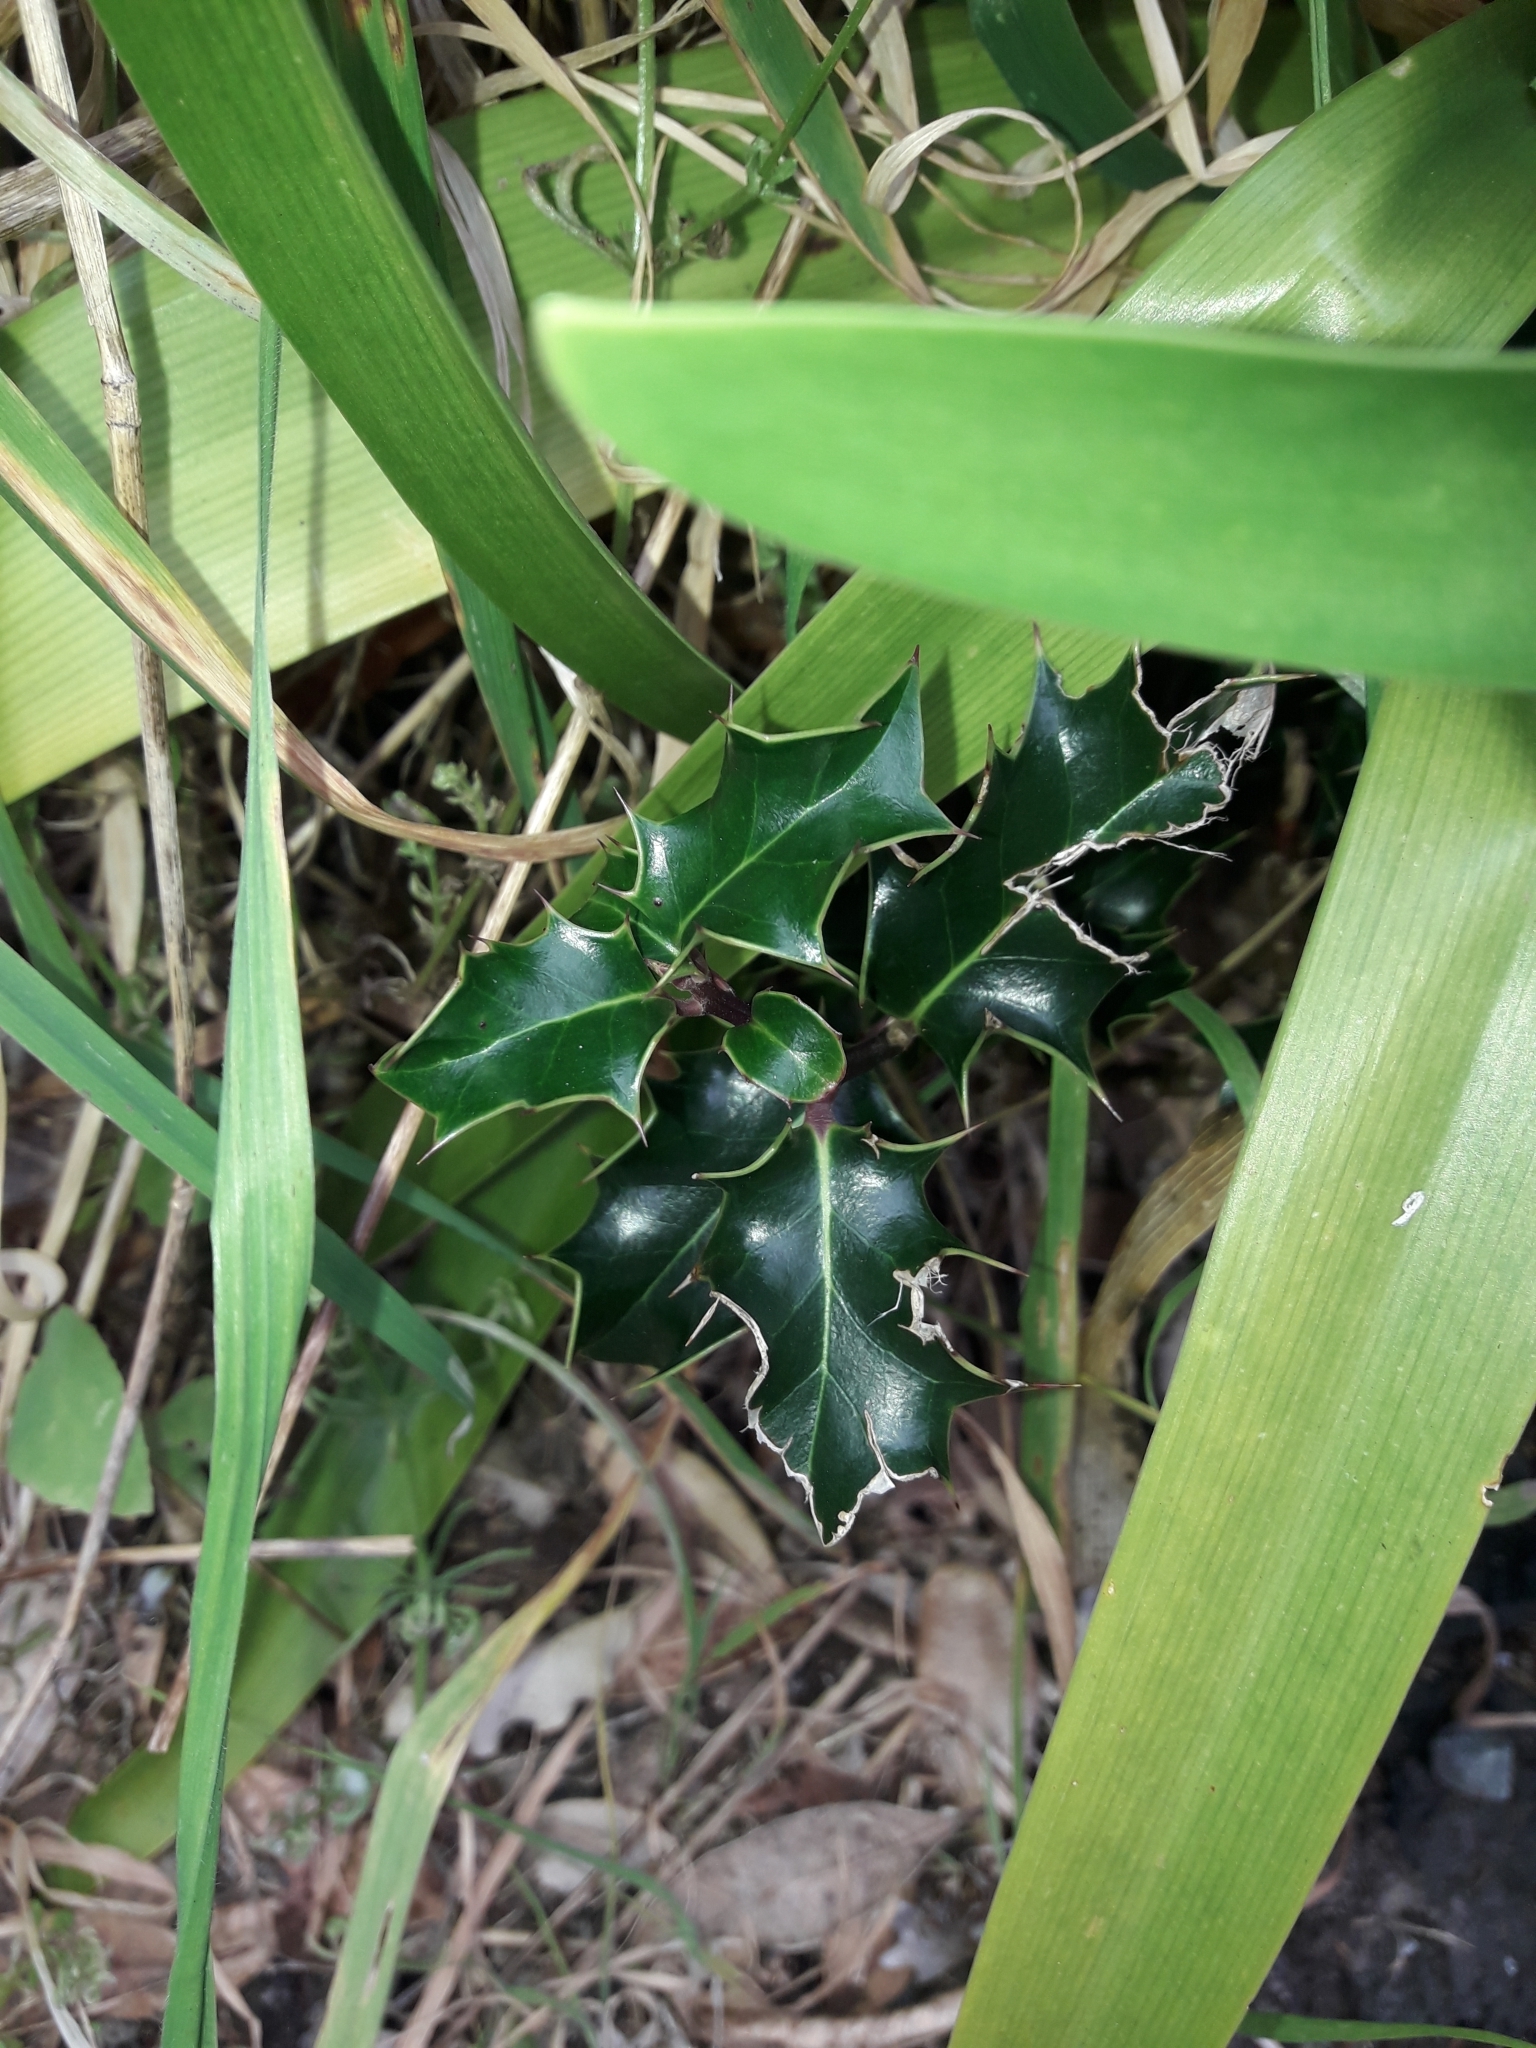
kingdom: Plantae
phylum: Tracheophyta
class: Magnoliopsida
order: Aquifoliales
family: Aquifoliaceae
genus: Ilex
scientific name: Ilex aquifolium
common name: English holly
